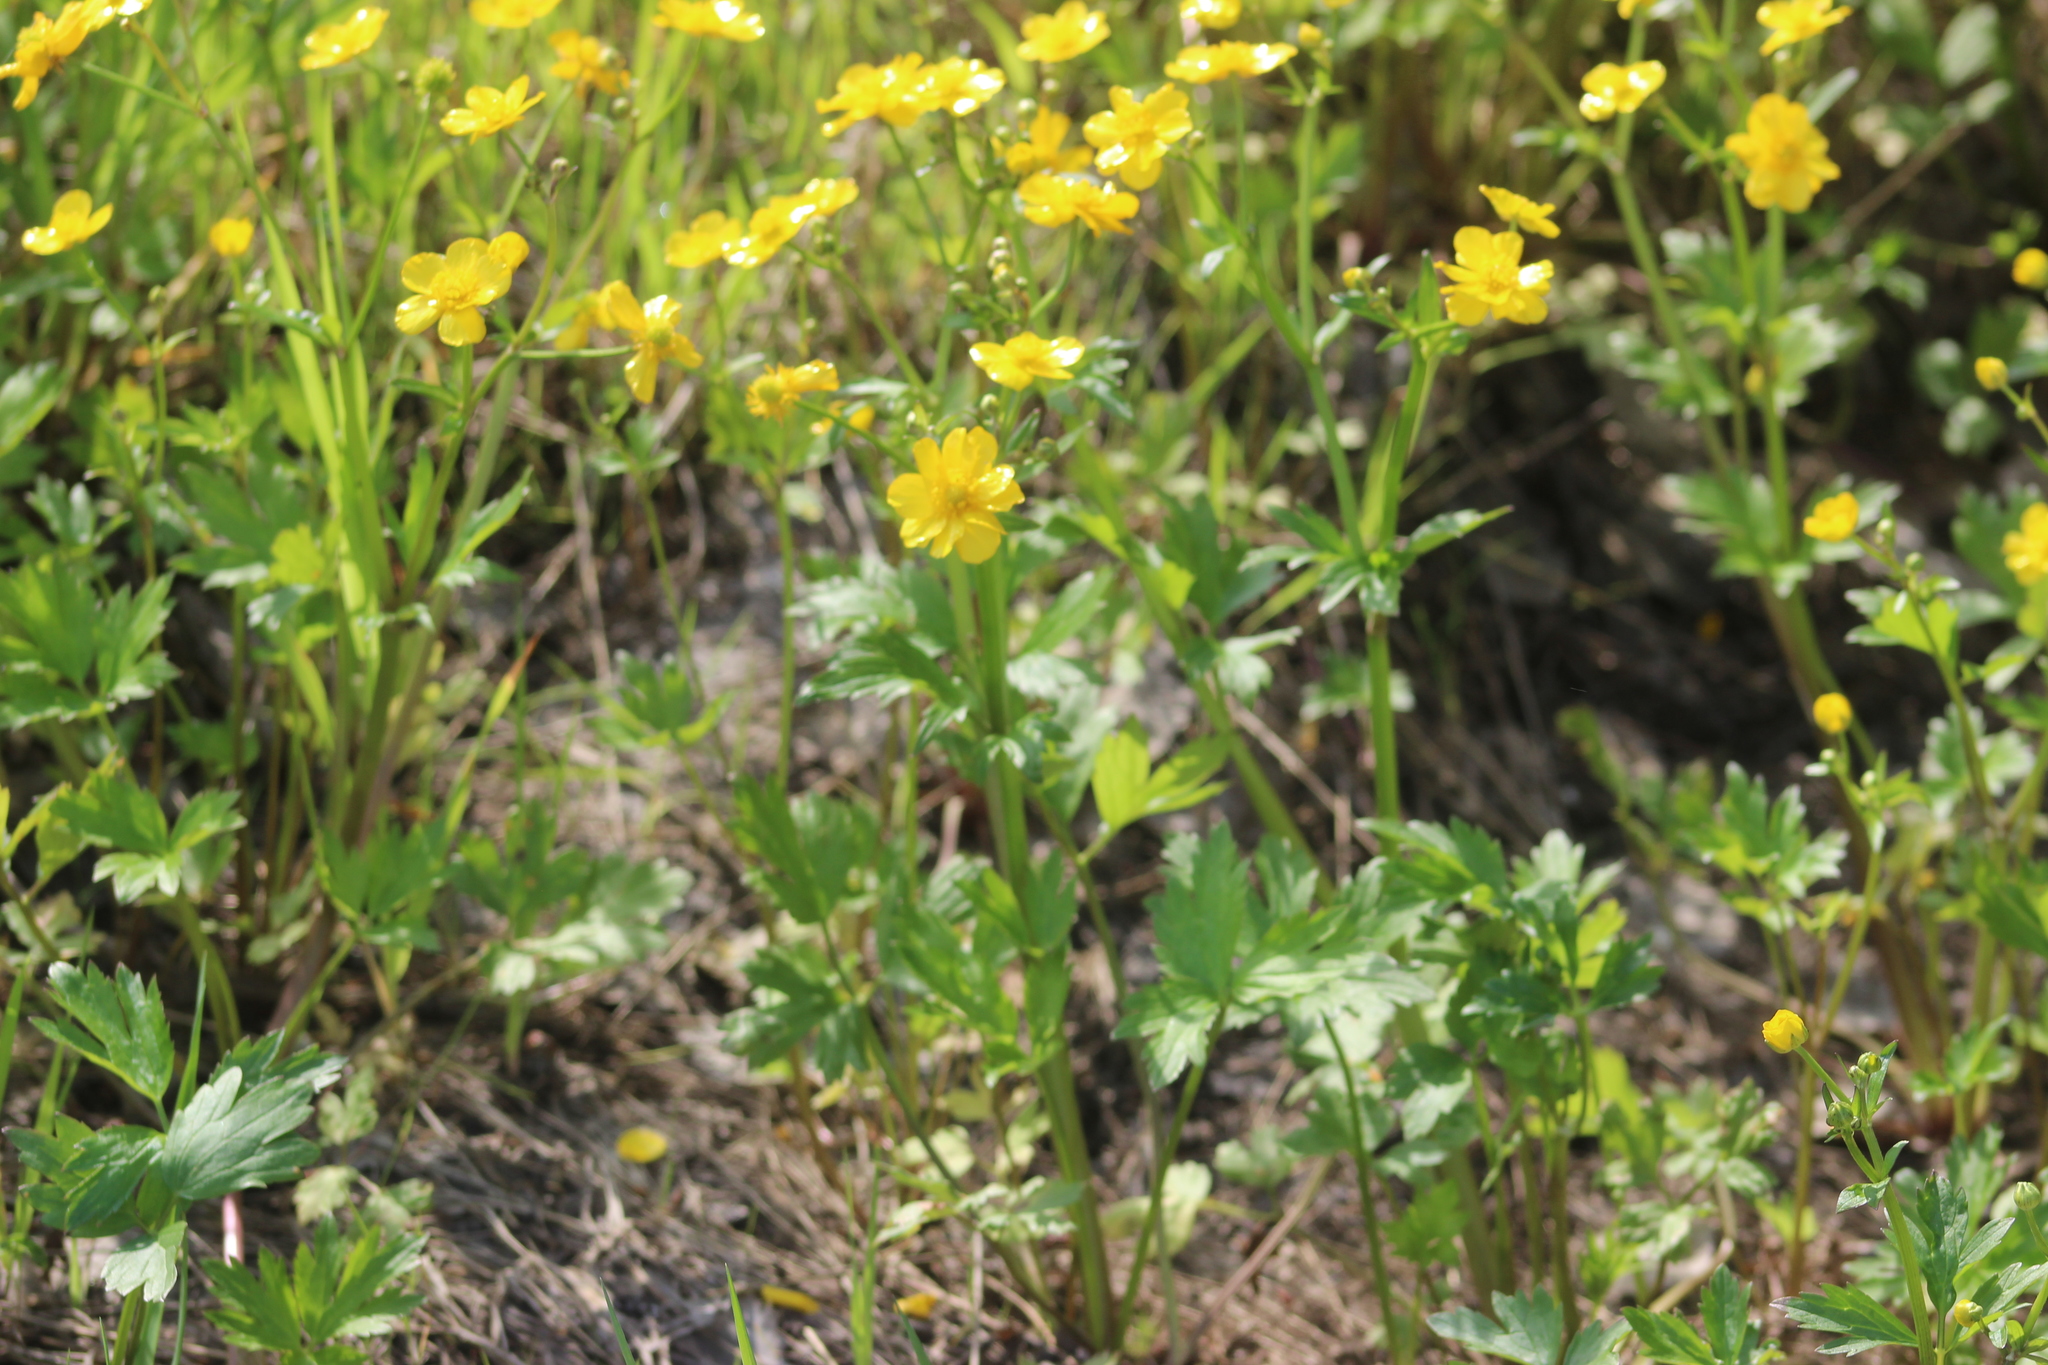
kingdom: Plantae
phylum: Tracheophyta
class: Magnoliopsida
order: Ranunculales
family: Ranunculaceae
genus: Ranunculus
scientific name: Ranunculus repens
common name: Creeping buttercup
